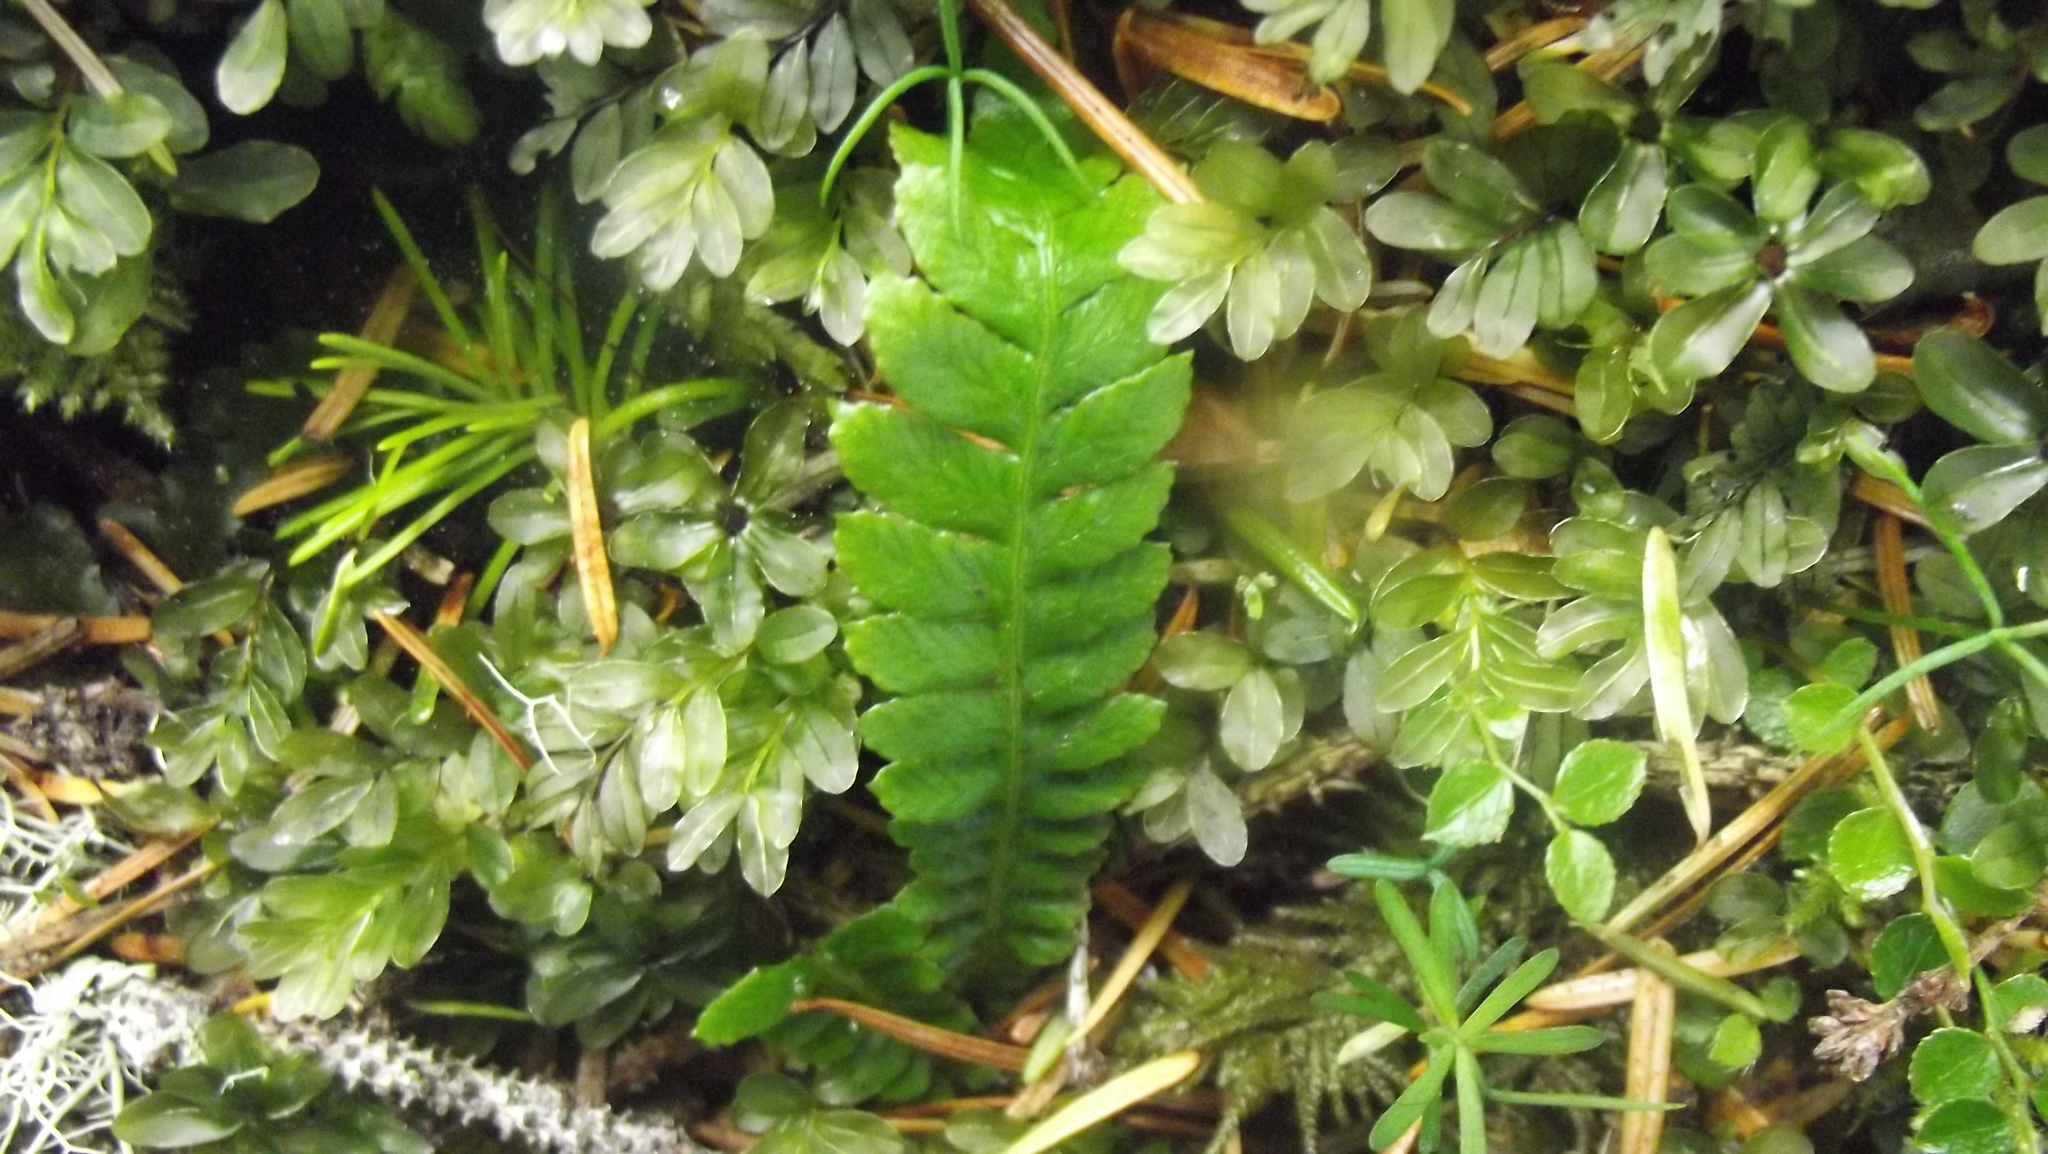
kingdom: Plantae
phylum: Tracheophyta
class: Polypodiopsida
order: Polypodiales
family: Blechnaceae
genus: Struthiopteris
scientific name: Struthiopteris spicant
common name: Deer fern
